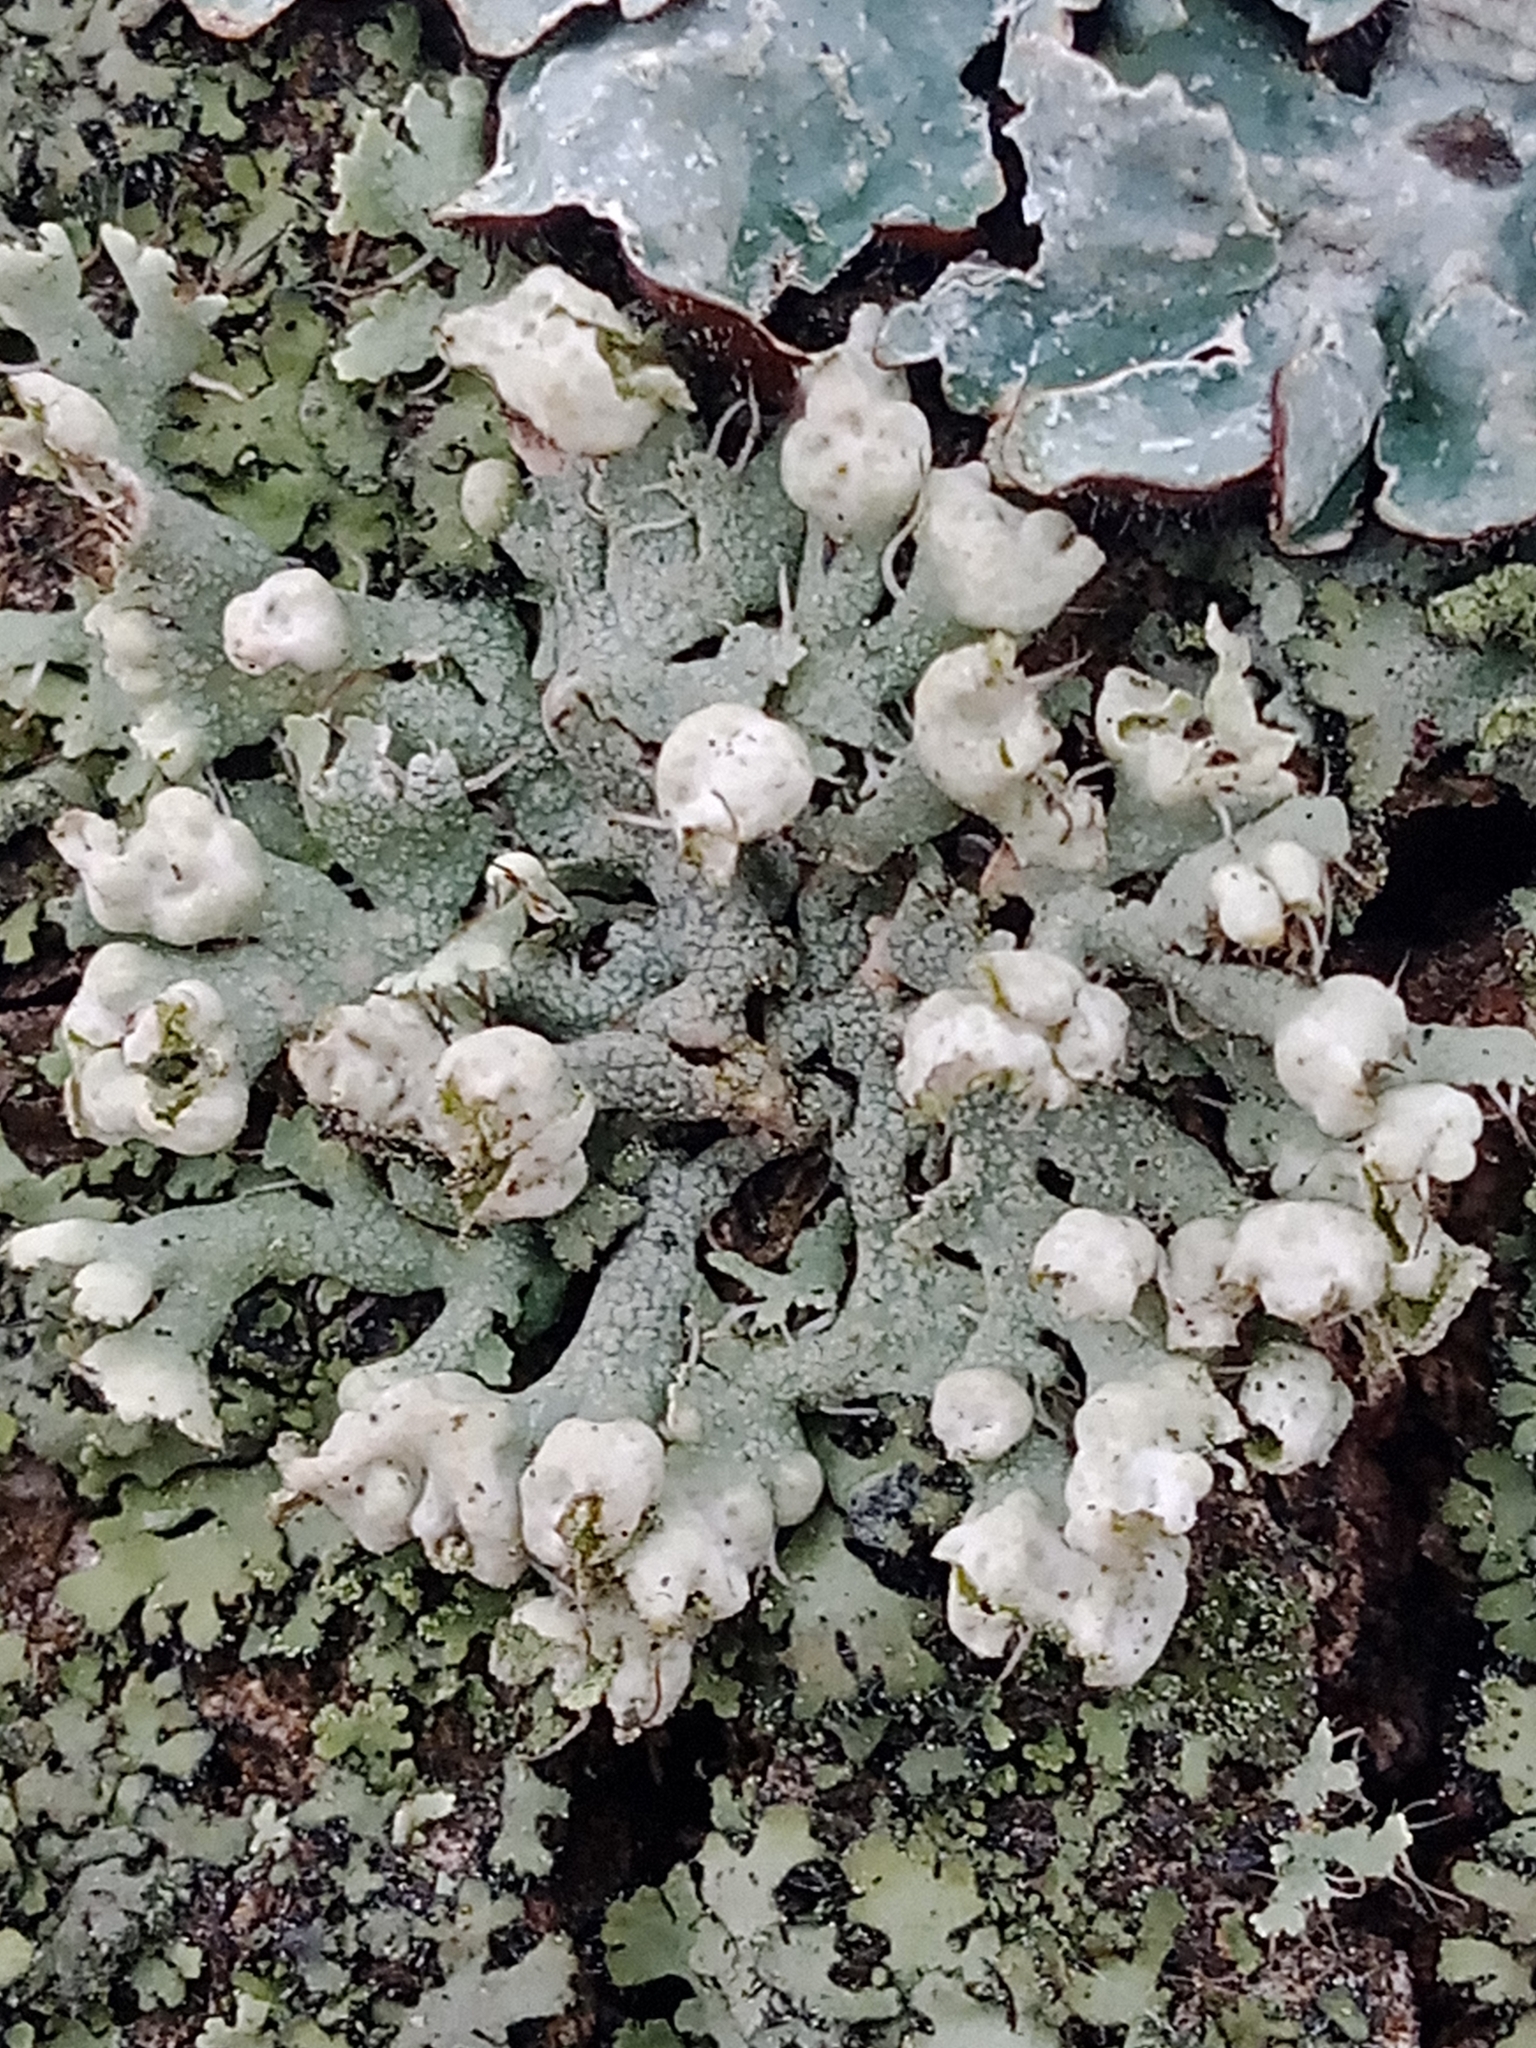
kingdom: Fungi
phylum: Ascomycota
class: Lecanoromycetes
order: Caliciales
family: Physciaceae
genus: Physcia
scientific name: Physcia adscendens
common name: Hooded rosette lichen
